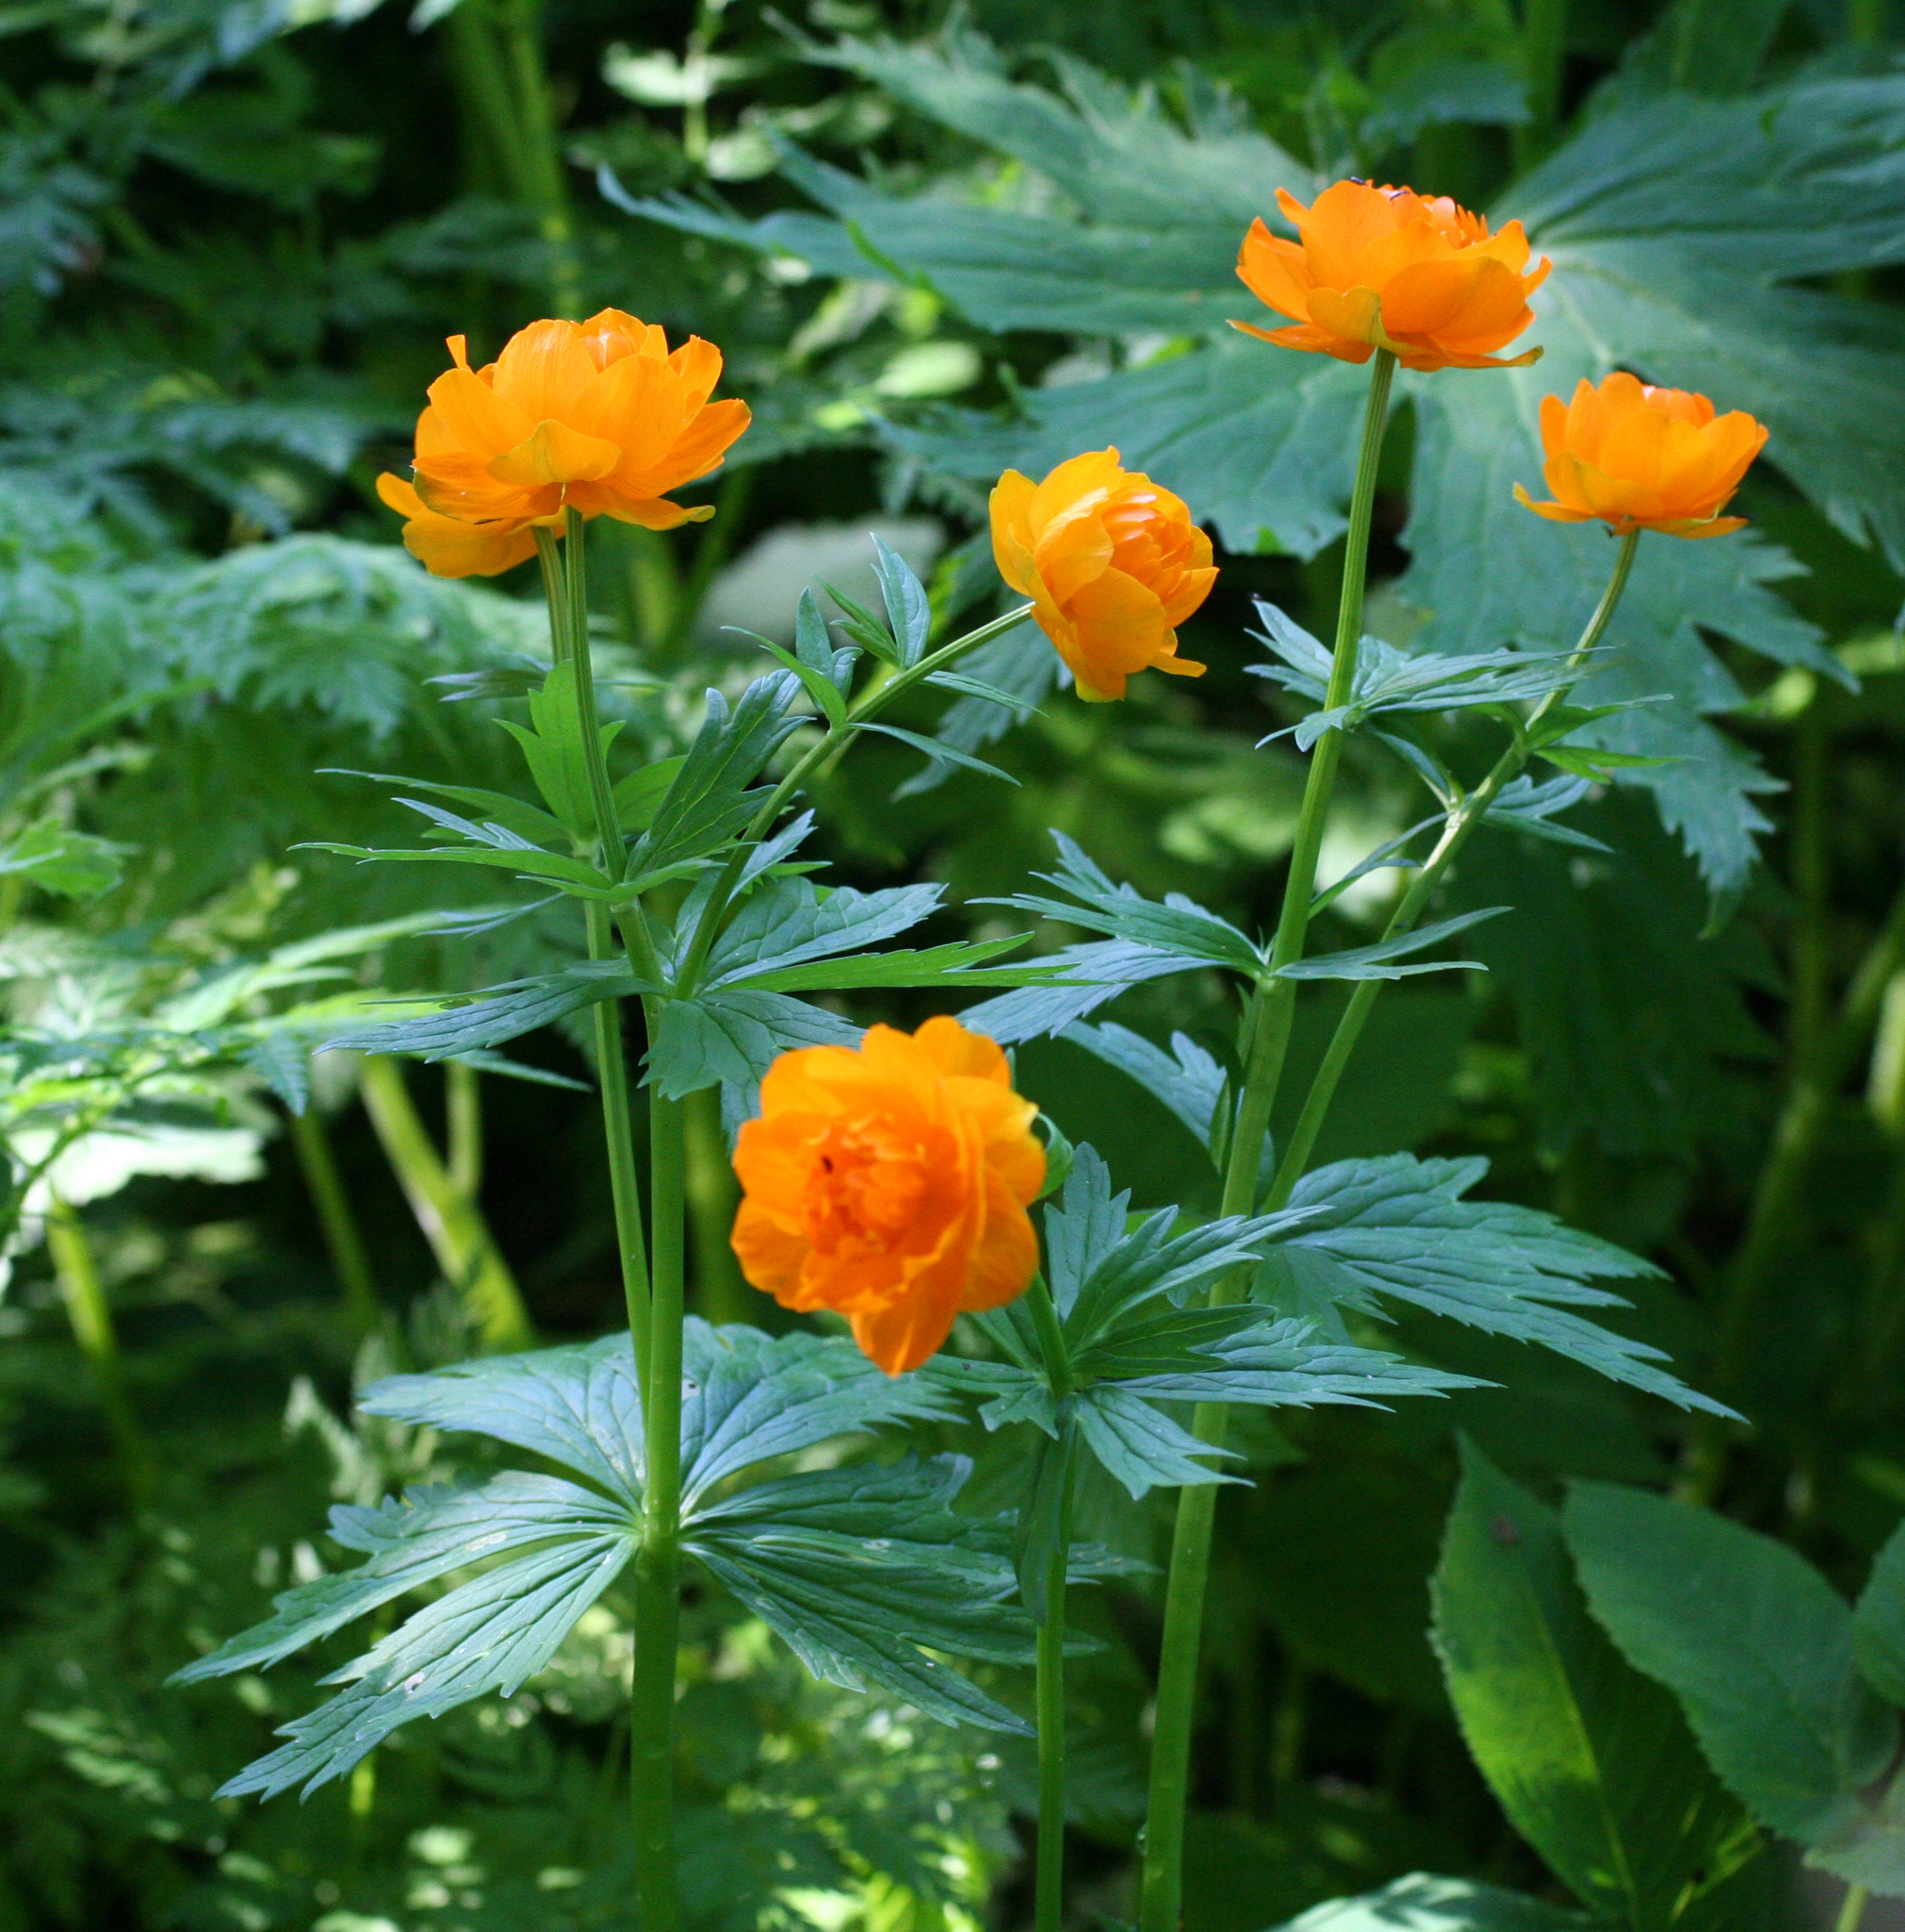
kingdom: Plantae
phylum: Tracheophyta
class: Magnoliopsida
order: Ranunculales
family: Ranunculaceae
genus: Trollius
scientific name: Trollius asiaticus
